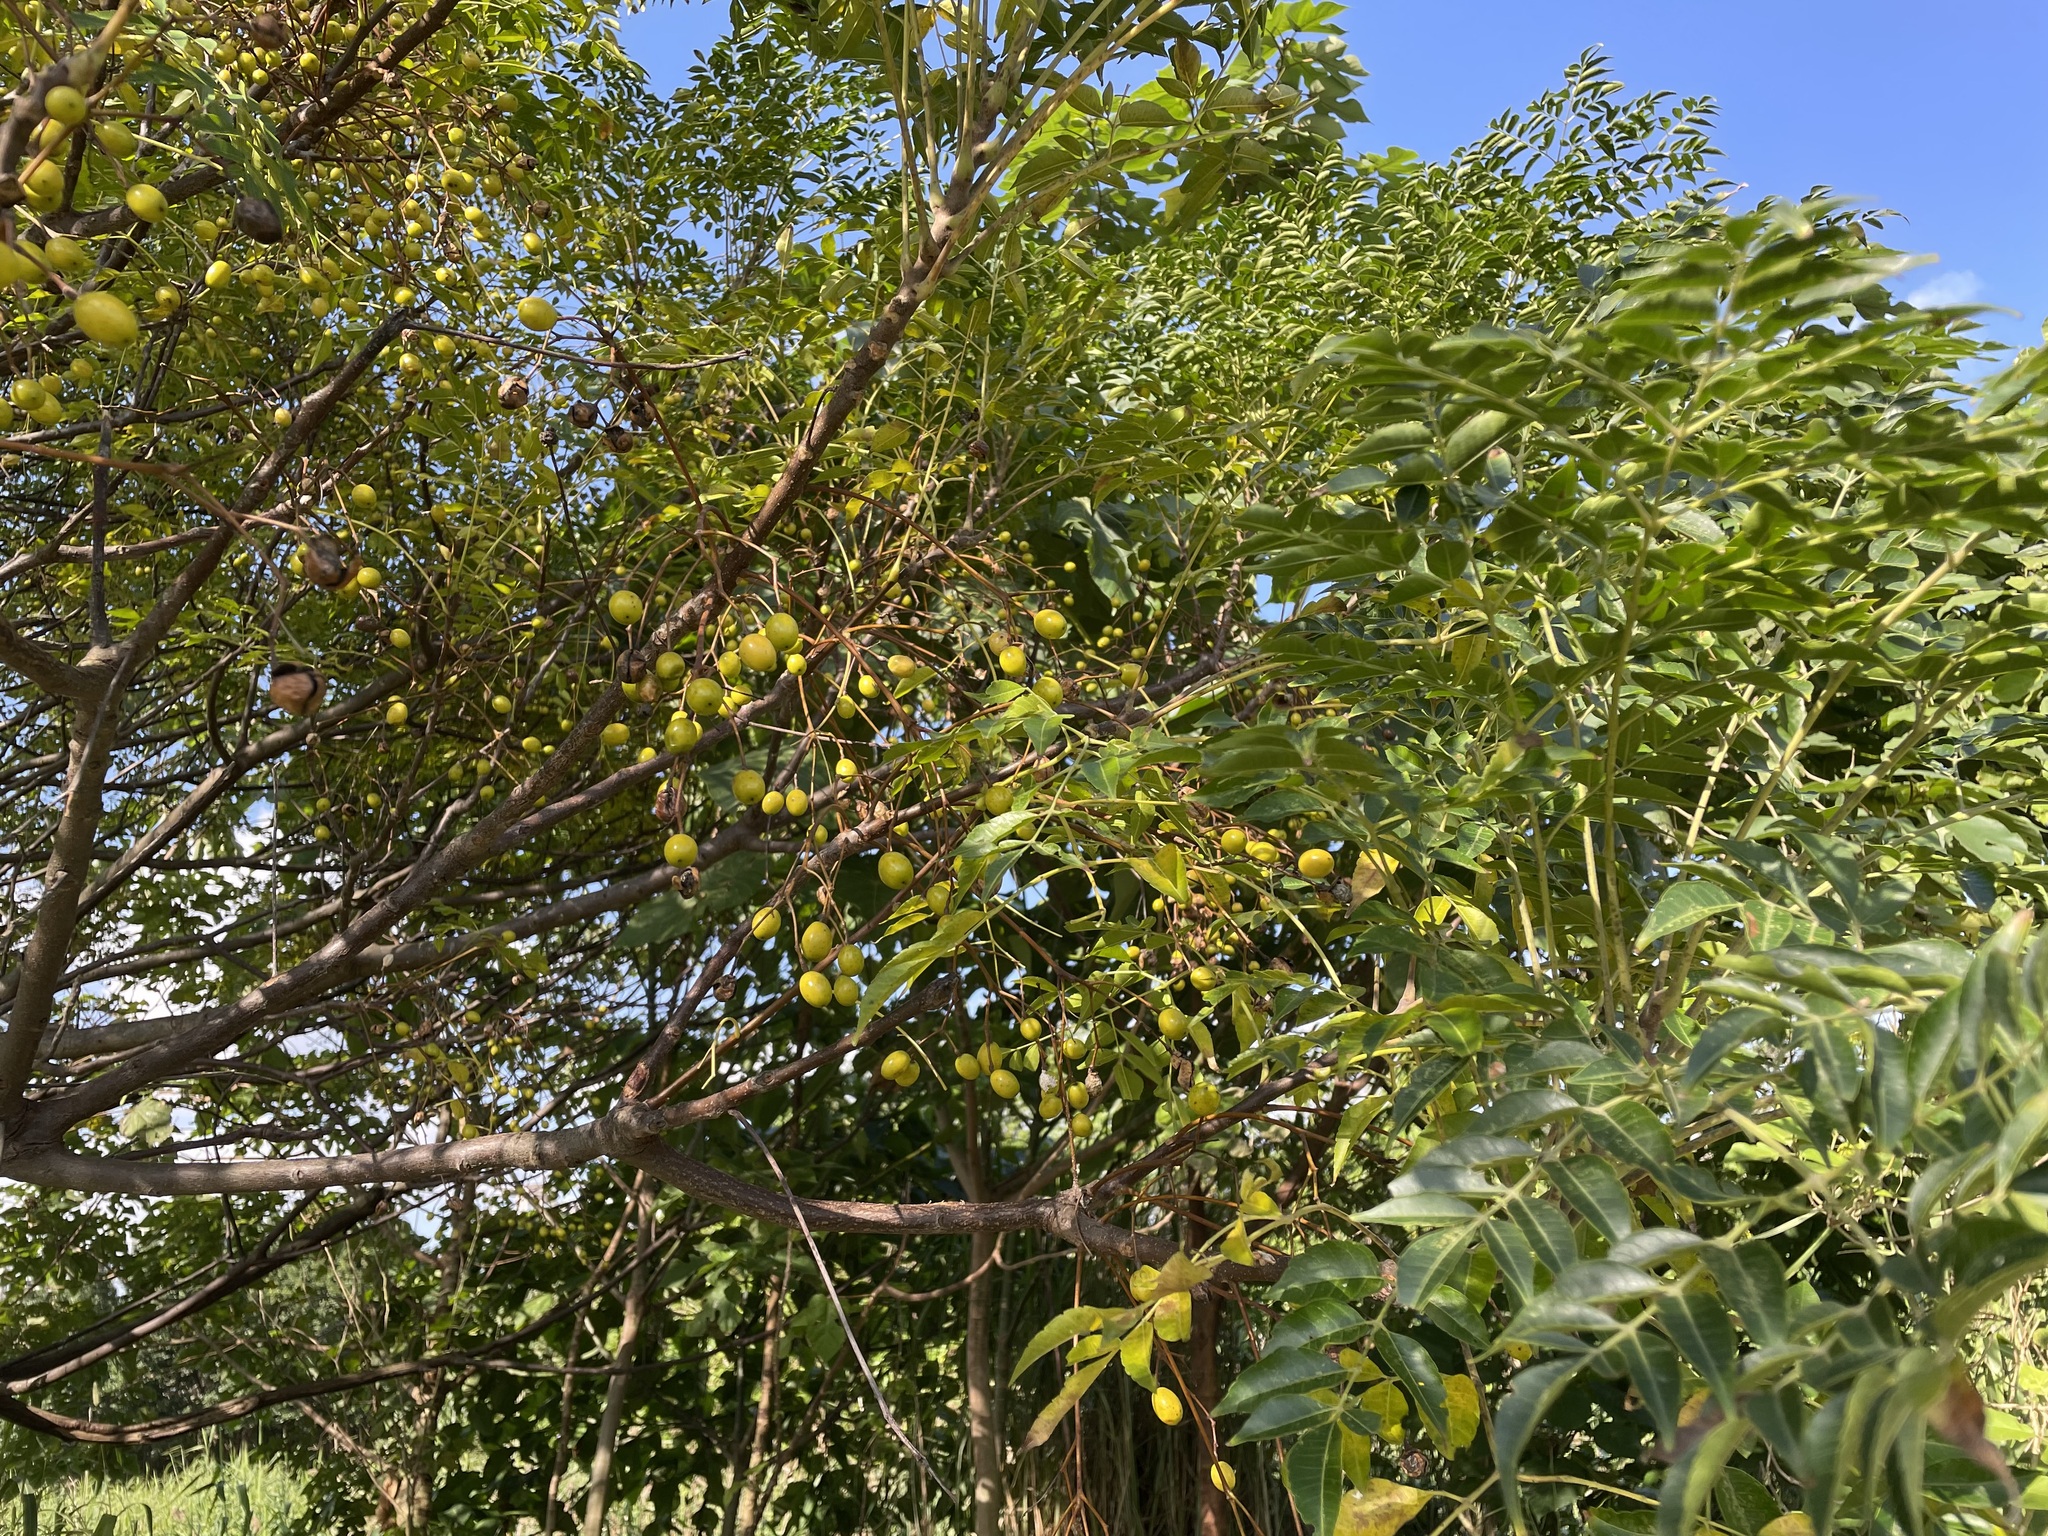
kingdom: Plantae
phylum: Tracheophyta
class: Magnoliopsida
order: Sapindales
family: Meliaceae
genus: Melia
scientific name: Melia azedarach
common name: Chinaberrytree
